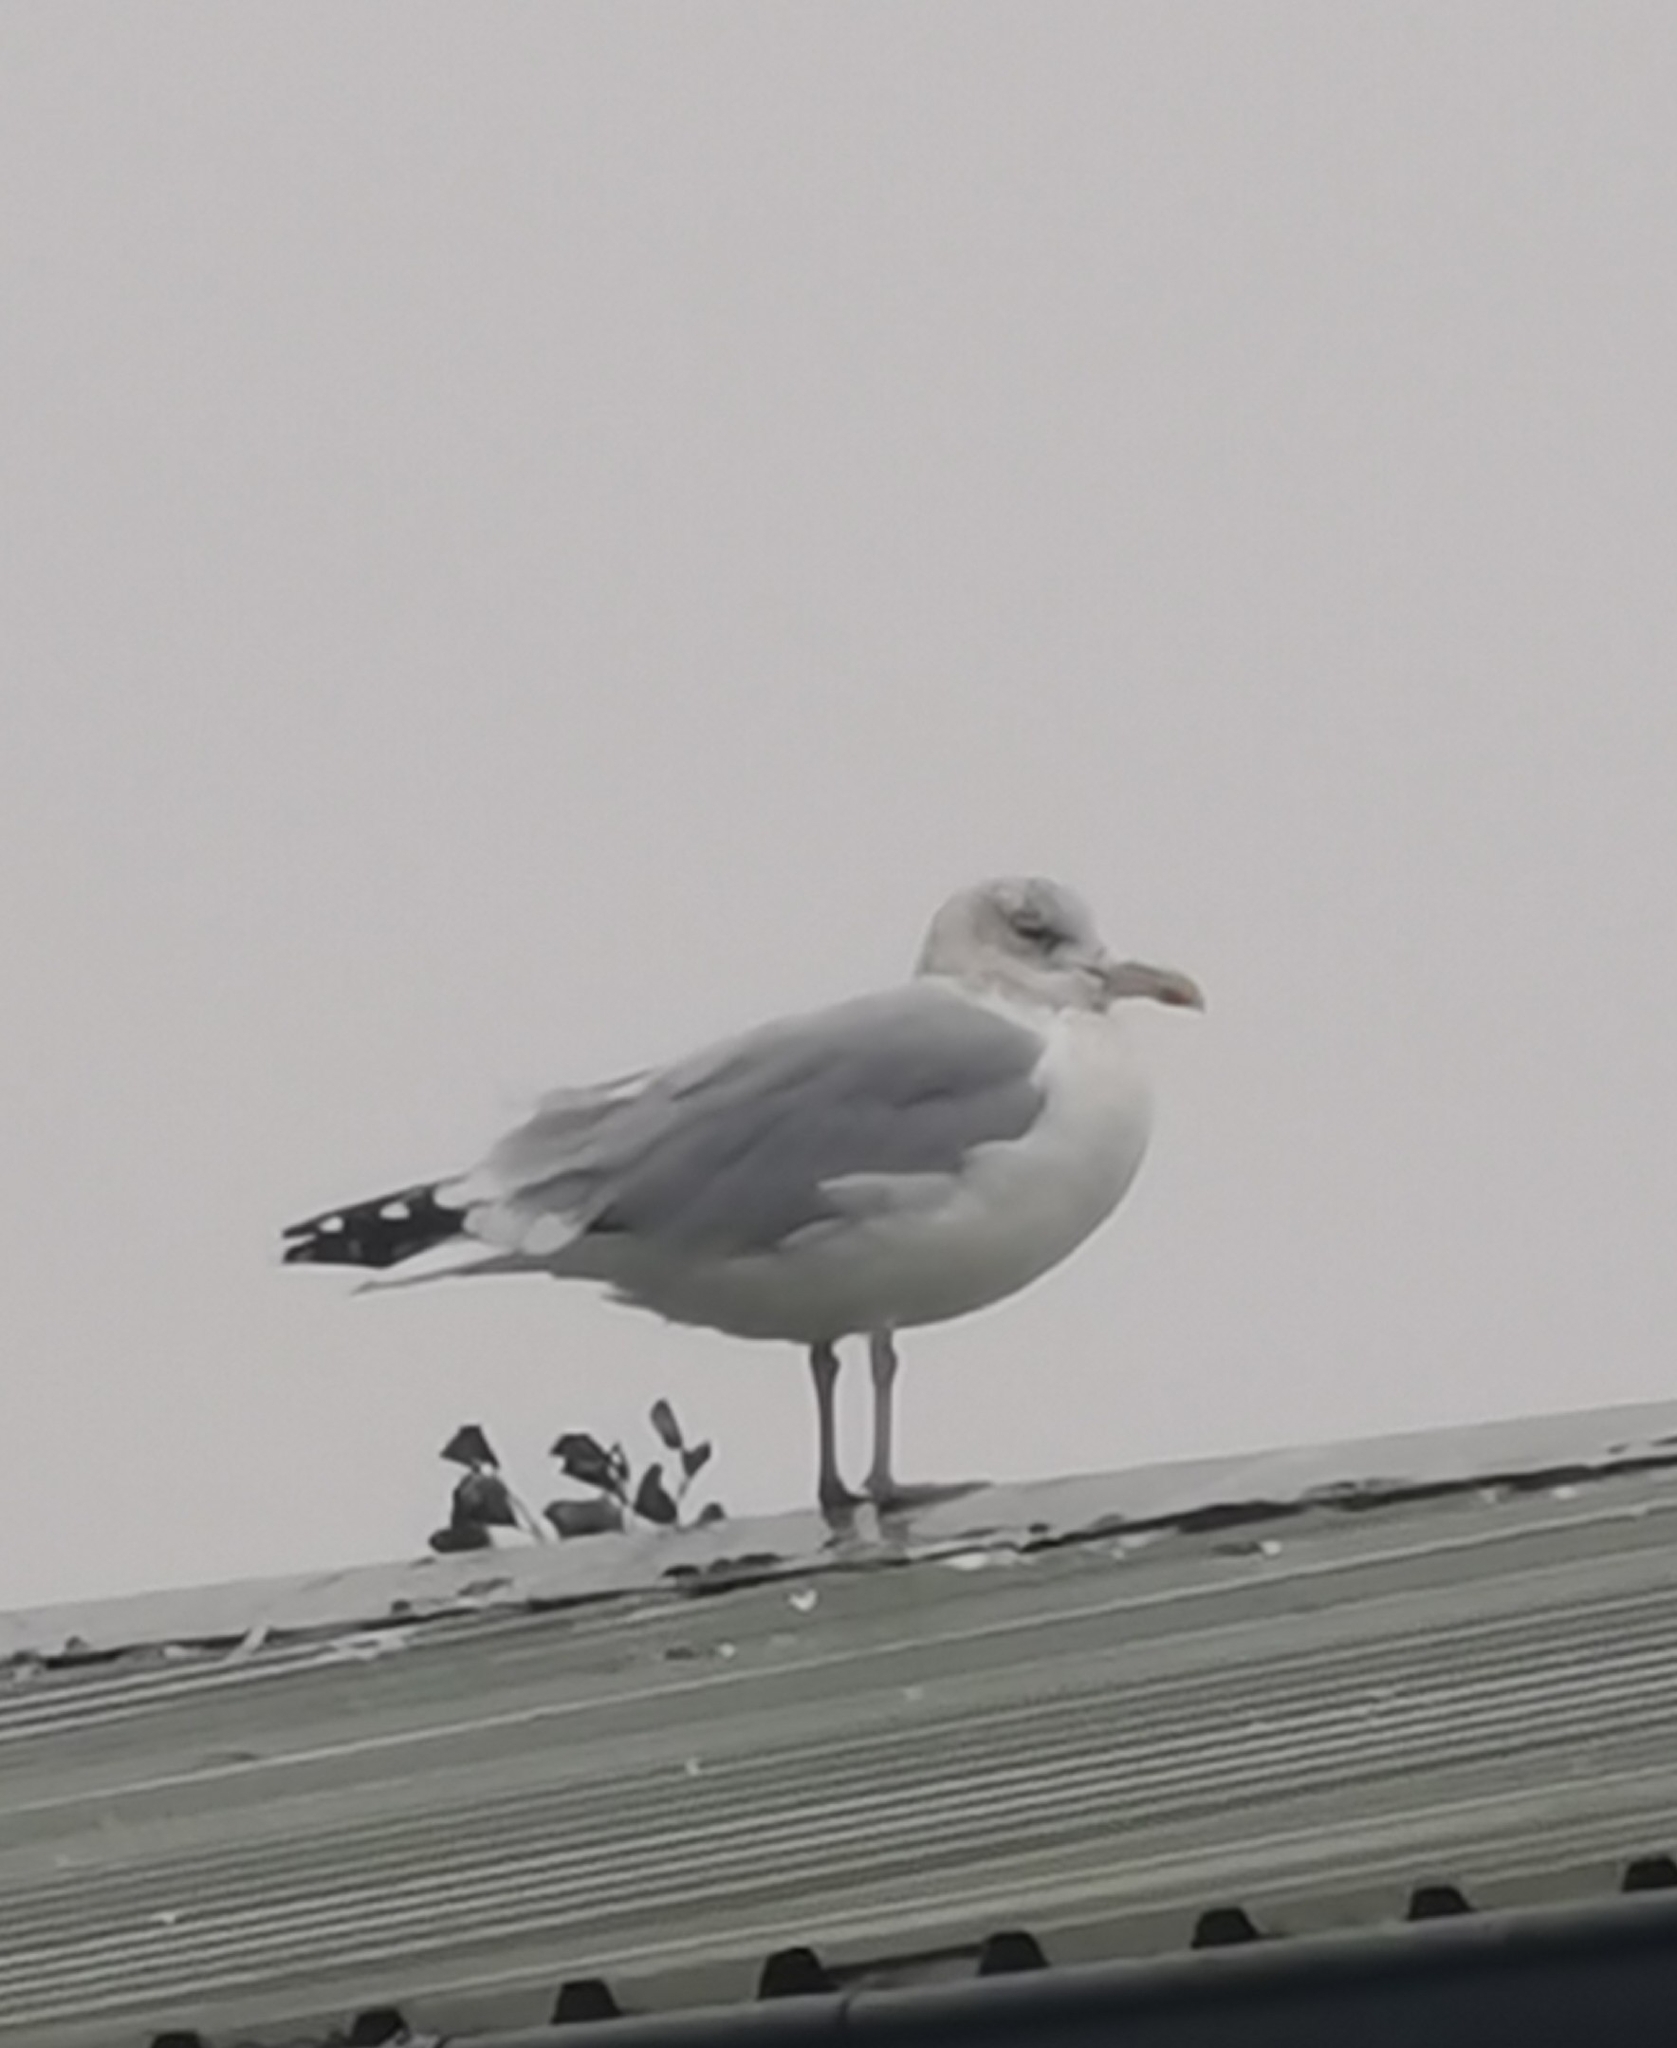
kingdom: Animalia
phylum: Chordata
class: Aves
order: Charadriiformes
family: Laridae
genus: Larus
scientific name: Larus argentatus
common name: Herring gull
